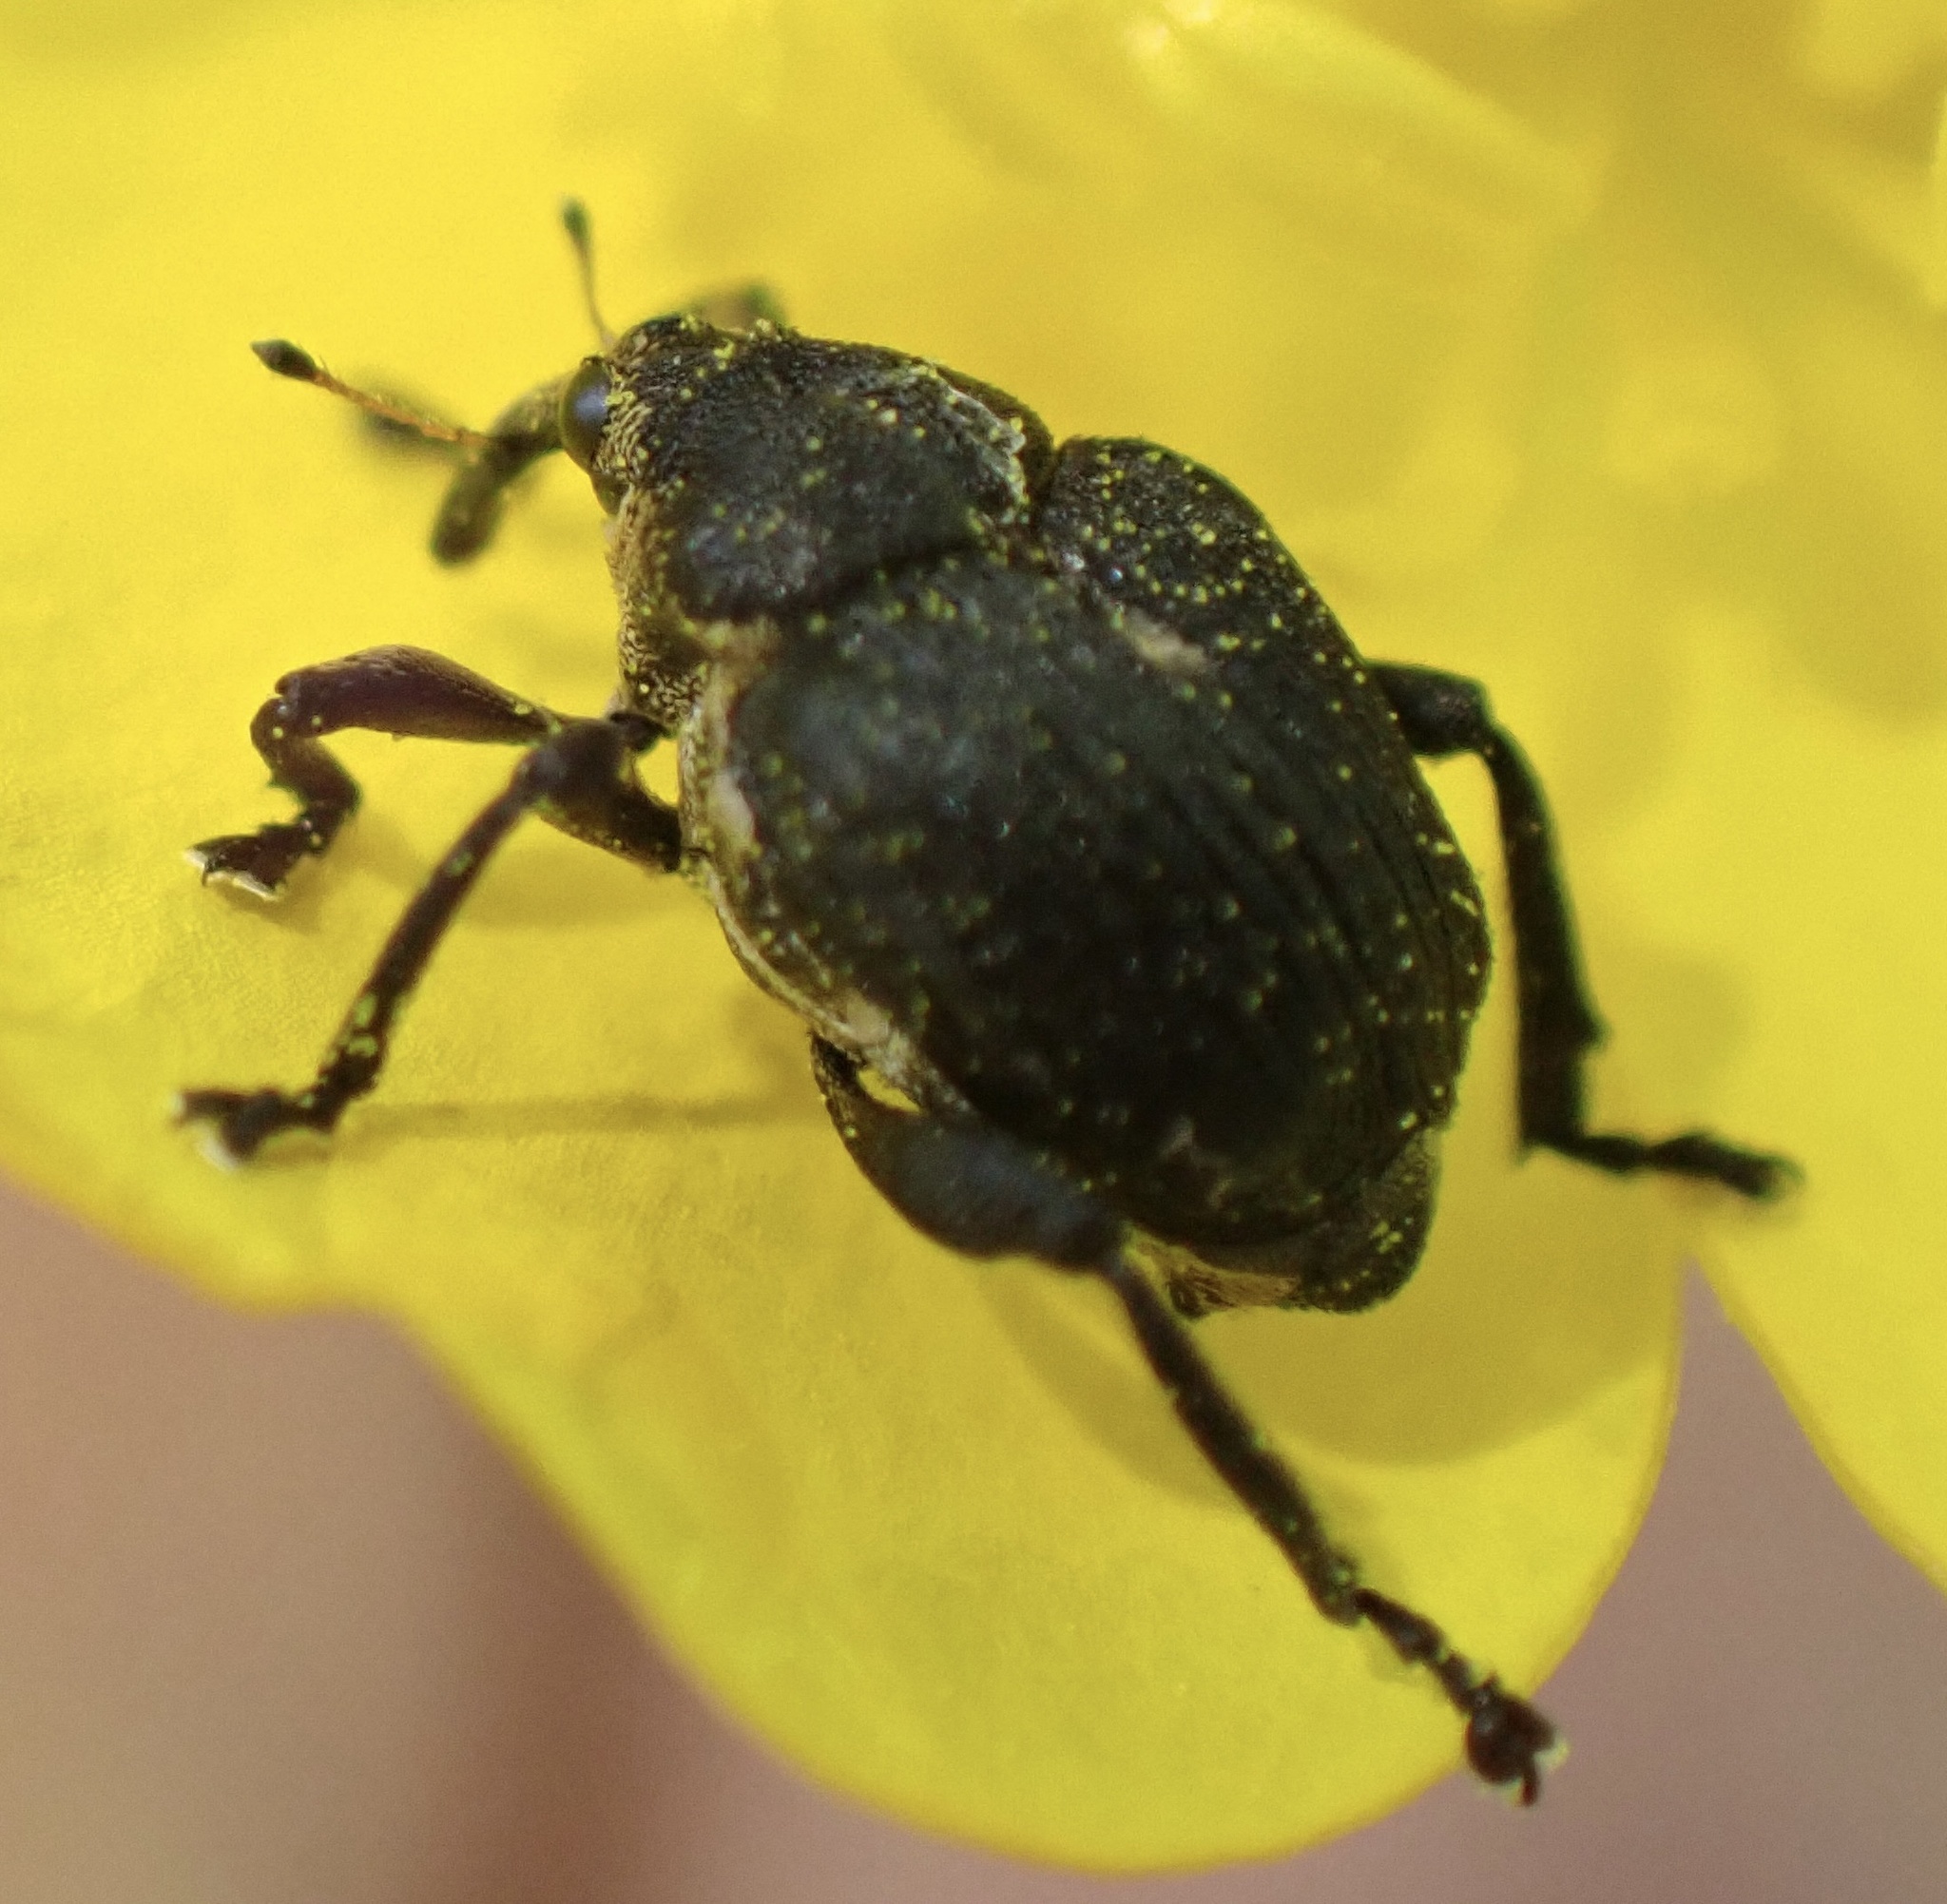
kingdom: Animalia
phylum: Arthropoda
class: Insecta
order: Coleoptera
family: Curculionidae
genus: Mononychus
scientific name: Mononychus punctumalbum
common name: Iris weevil
